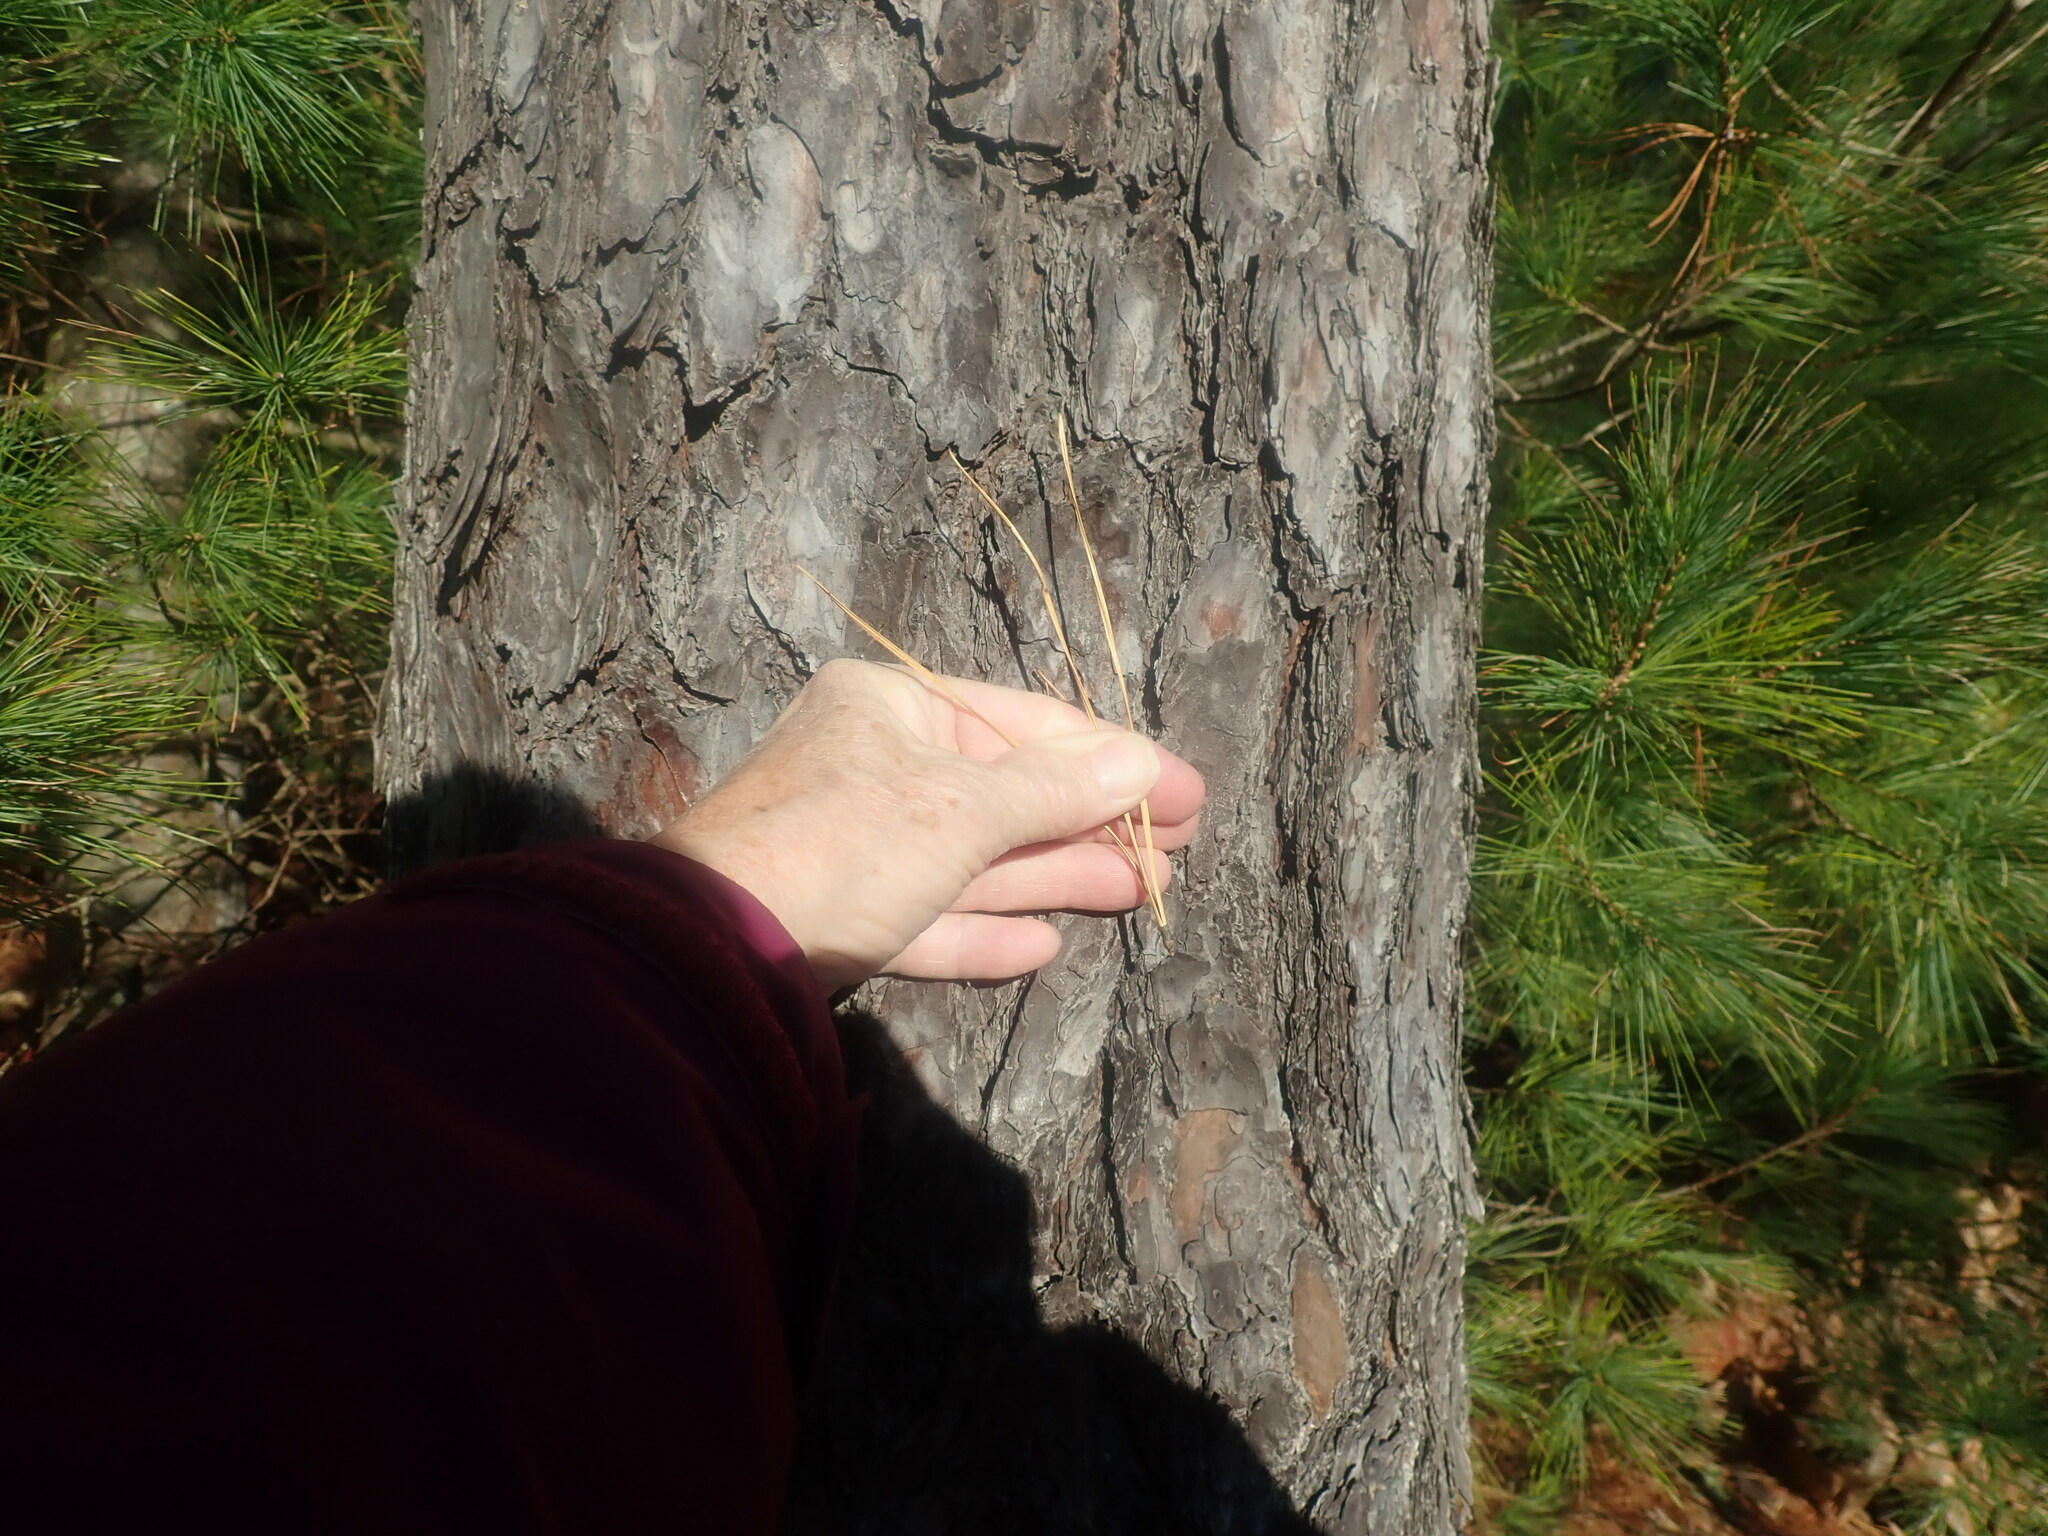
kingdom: Plantae
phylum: Tracheophyta
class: Pinopsida
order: Pinales
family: Pinaceae
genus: Pinus
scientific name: Pinus rigida
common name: Pitch pine
